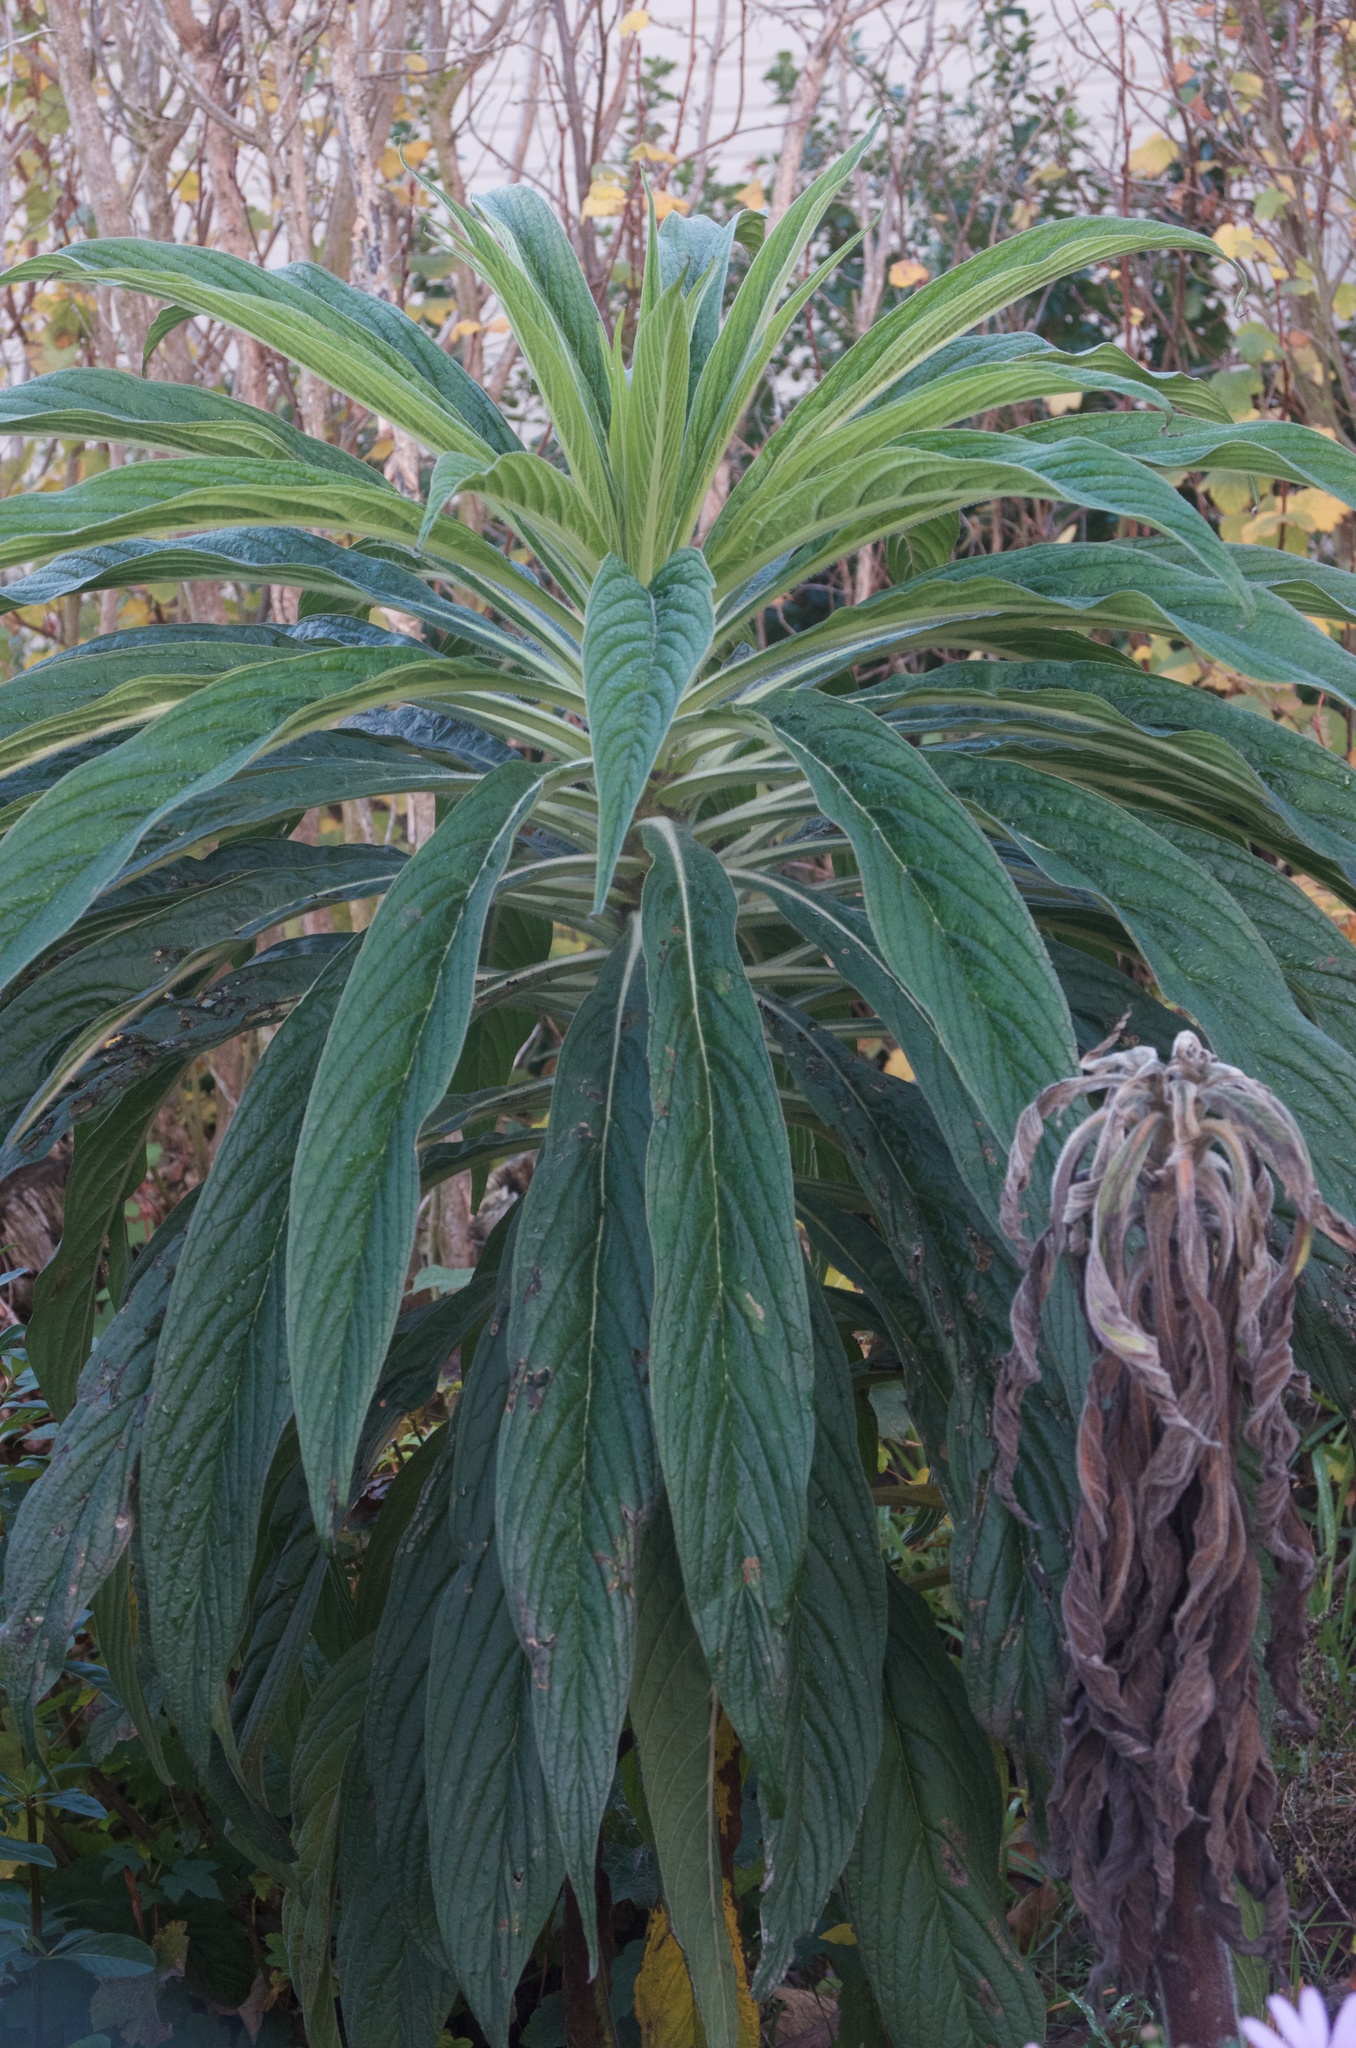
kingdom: Plantae
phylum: Tracheophyta
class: Magnoliopsida
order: Boraginales
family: Boraginaceae
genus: Echium
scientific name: Echium pininana
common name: Giant viper's-bugloss
